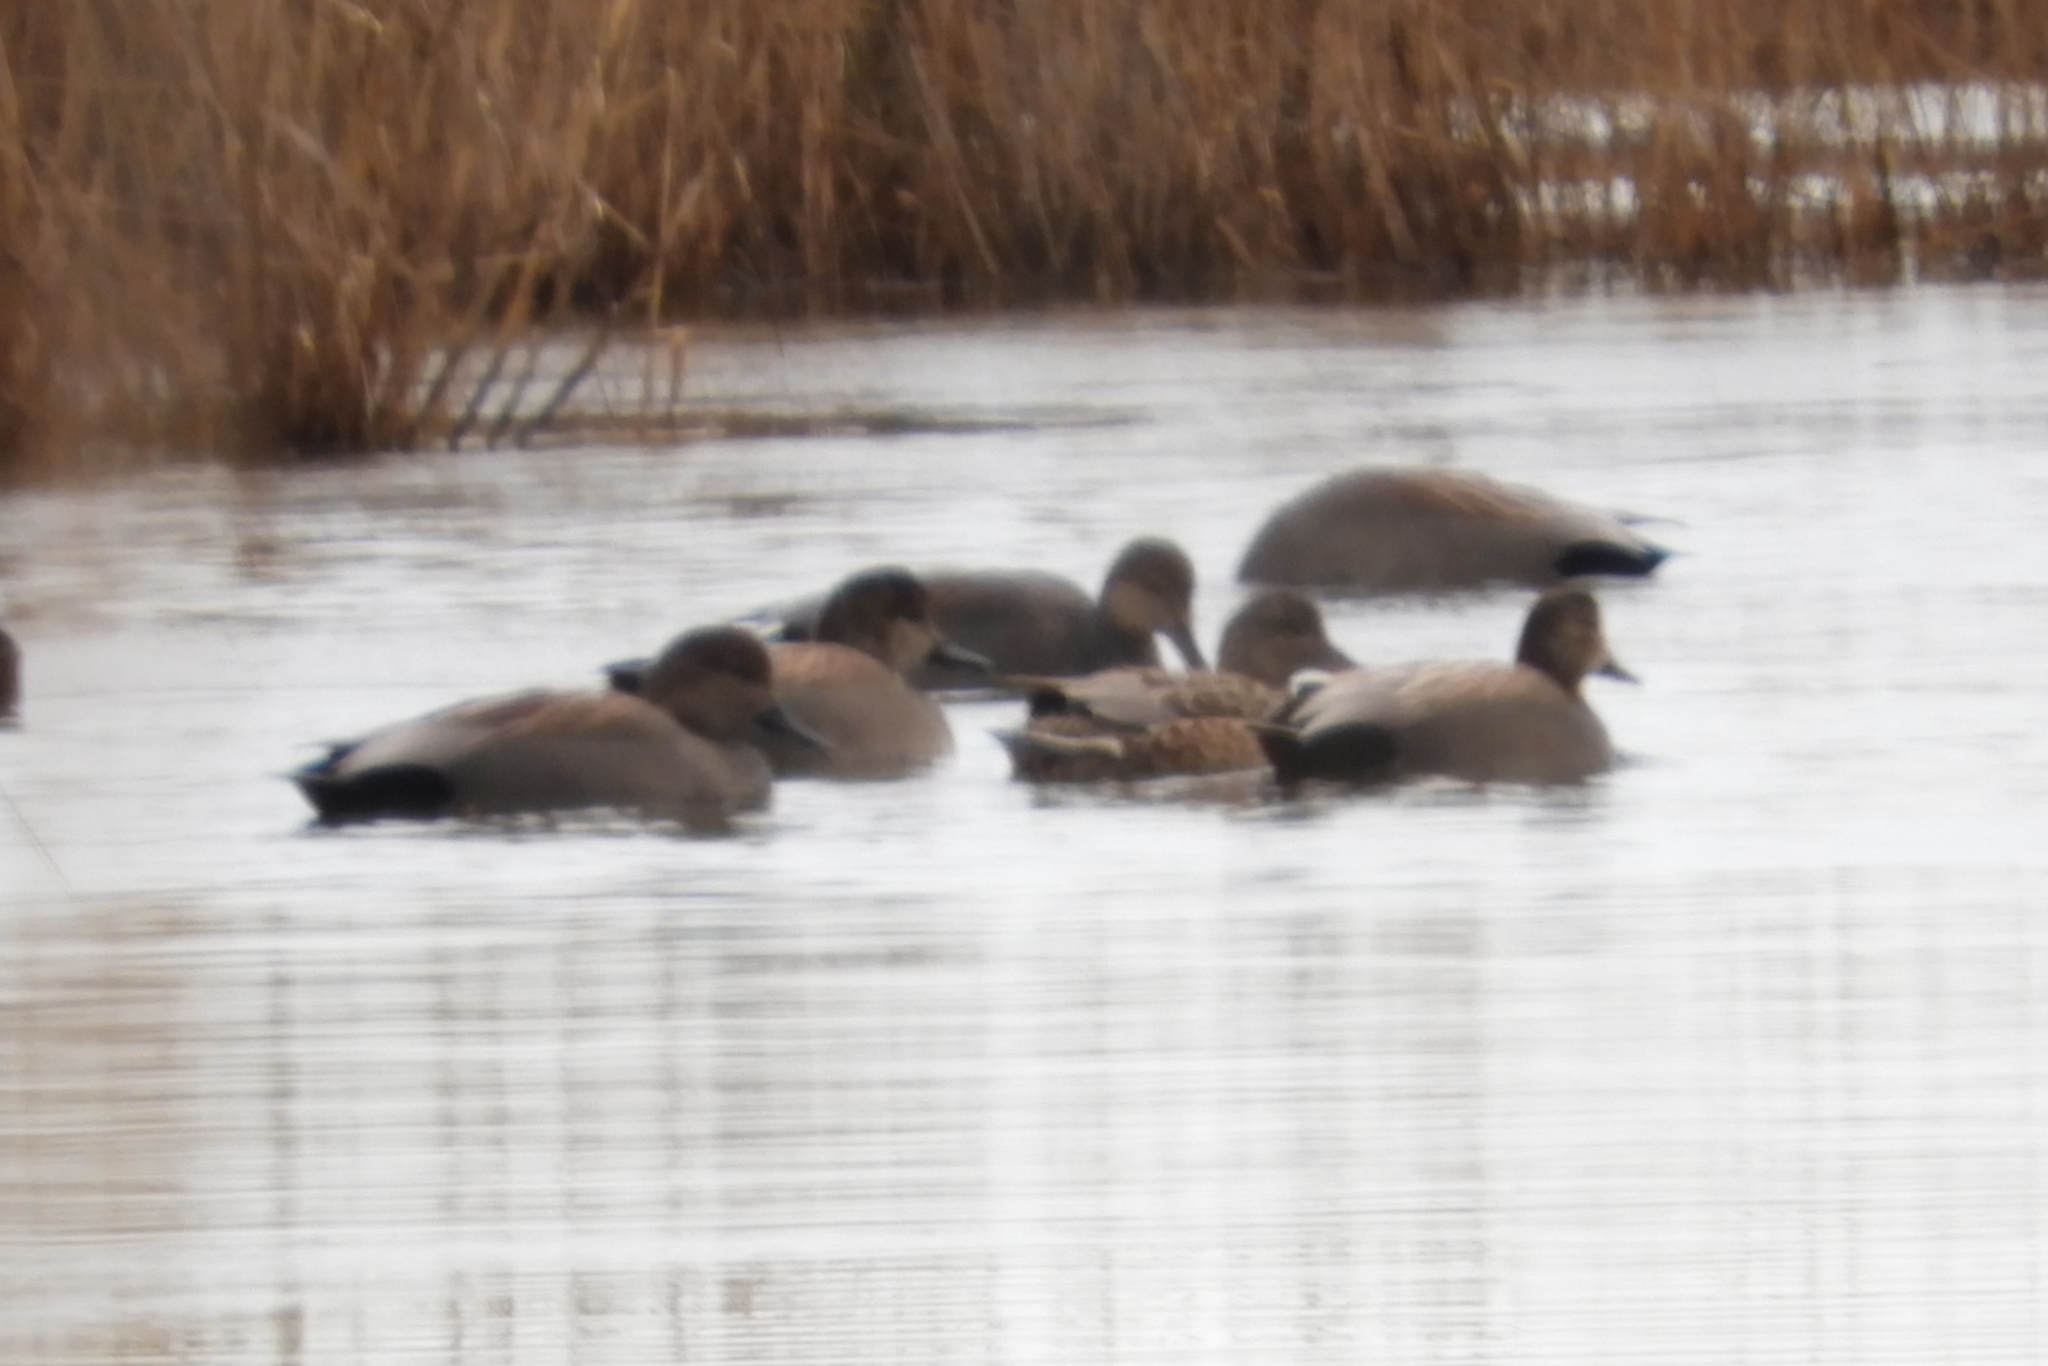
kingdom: Animalia
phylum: Chordata
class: Aves
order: Anseriformes
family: Anatidae
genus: Mareca
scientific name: Mareca strepera
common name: Gadwall
